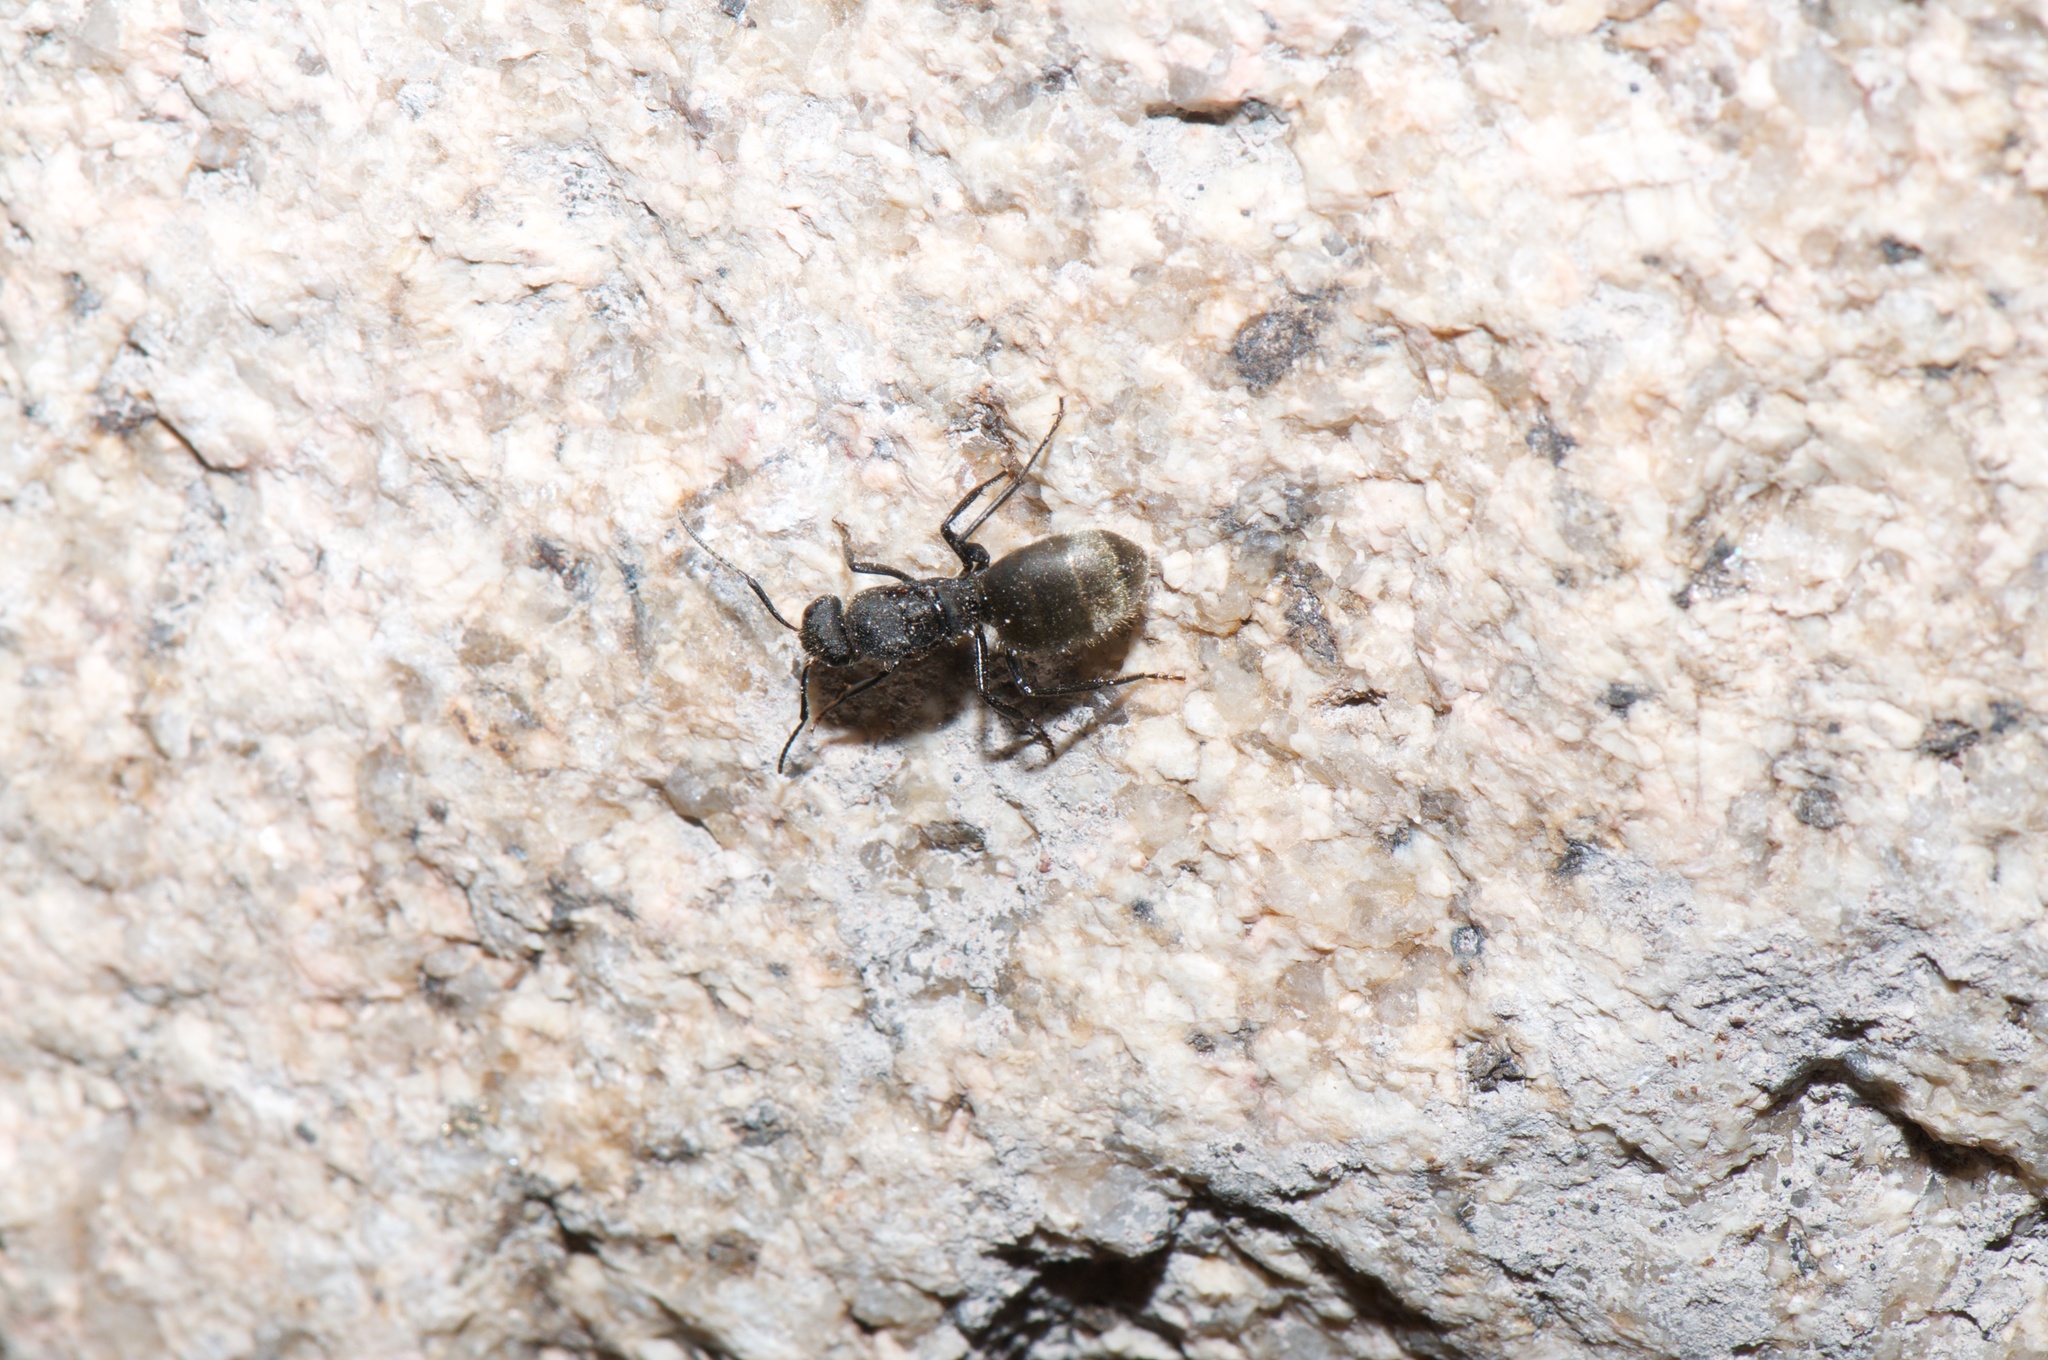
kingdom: Animalia
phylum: Arthropoda
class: Insecta
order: Hymenoptera
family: Formicidae
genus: Camponotus
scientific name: Camponotus mus
